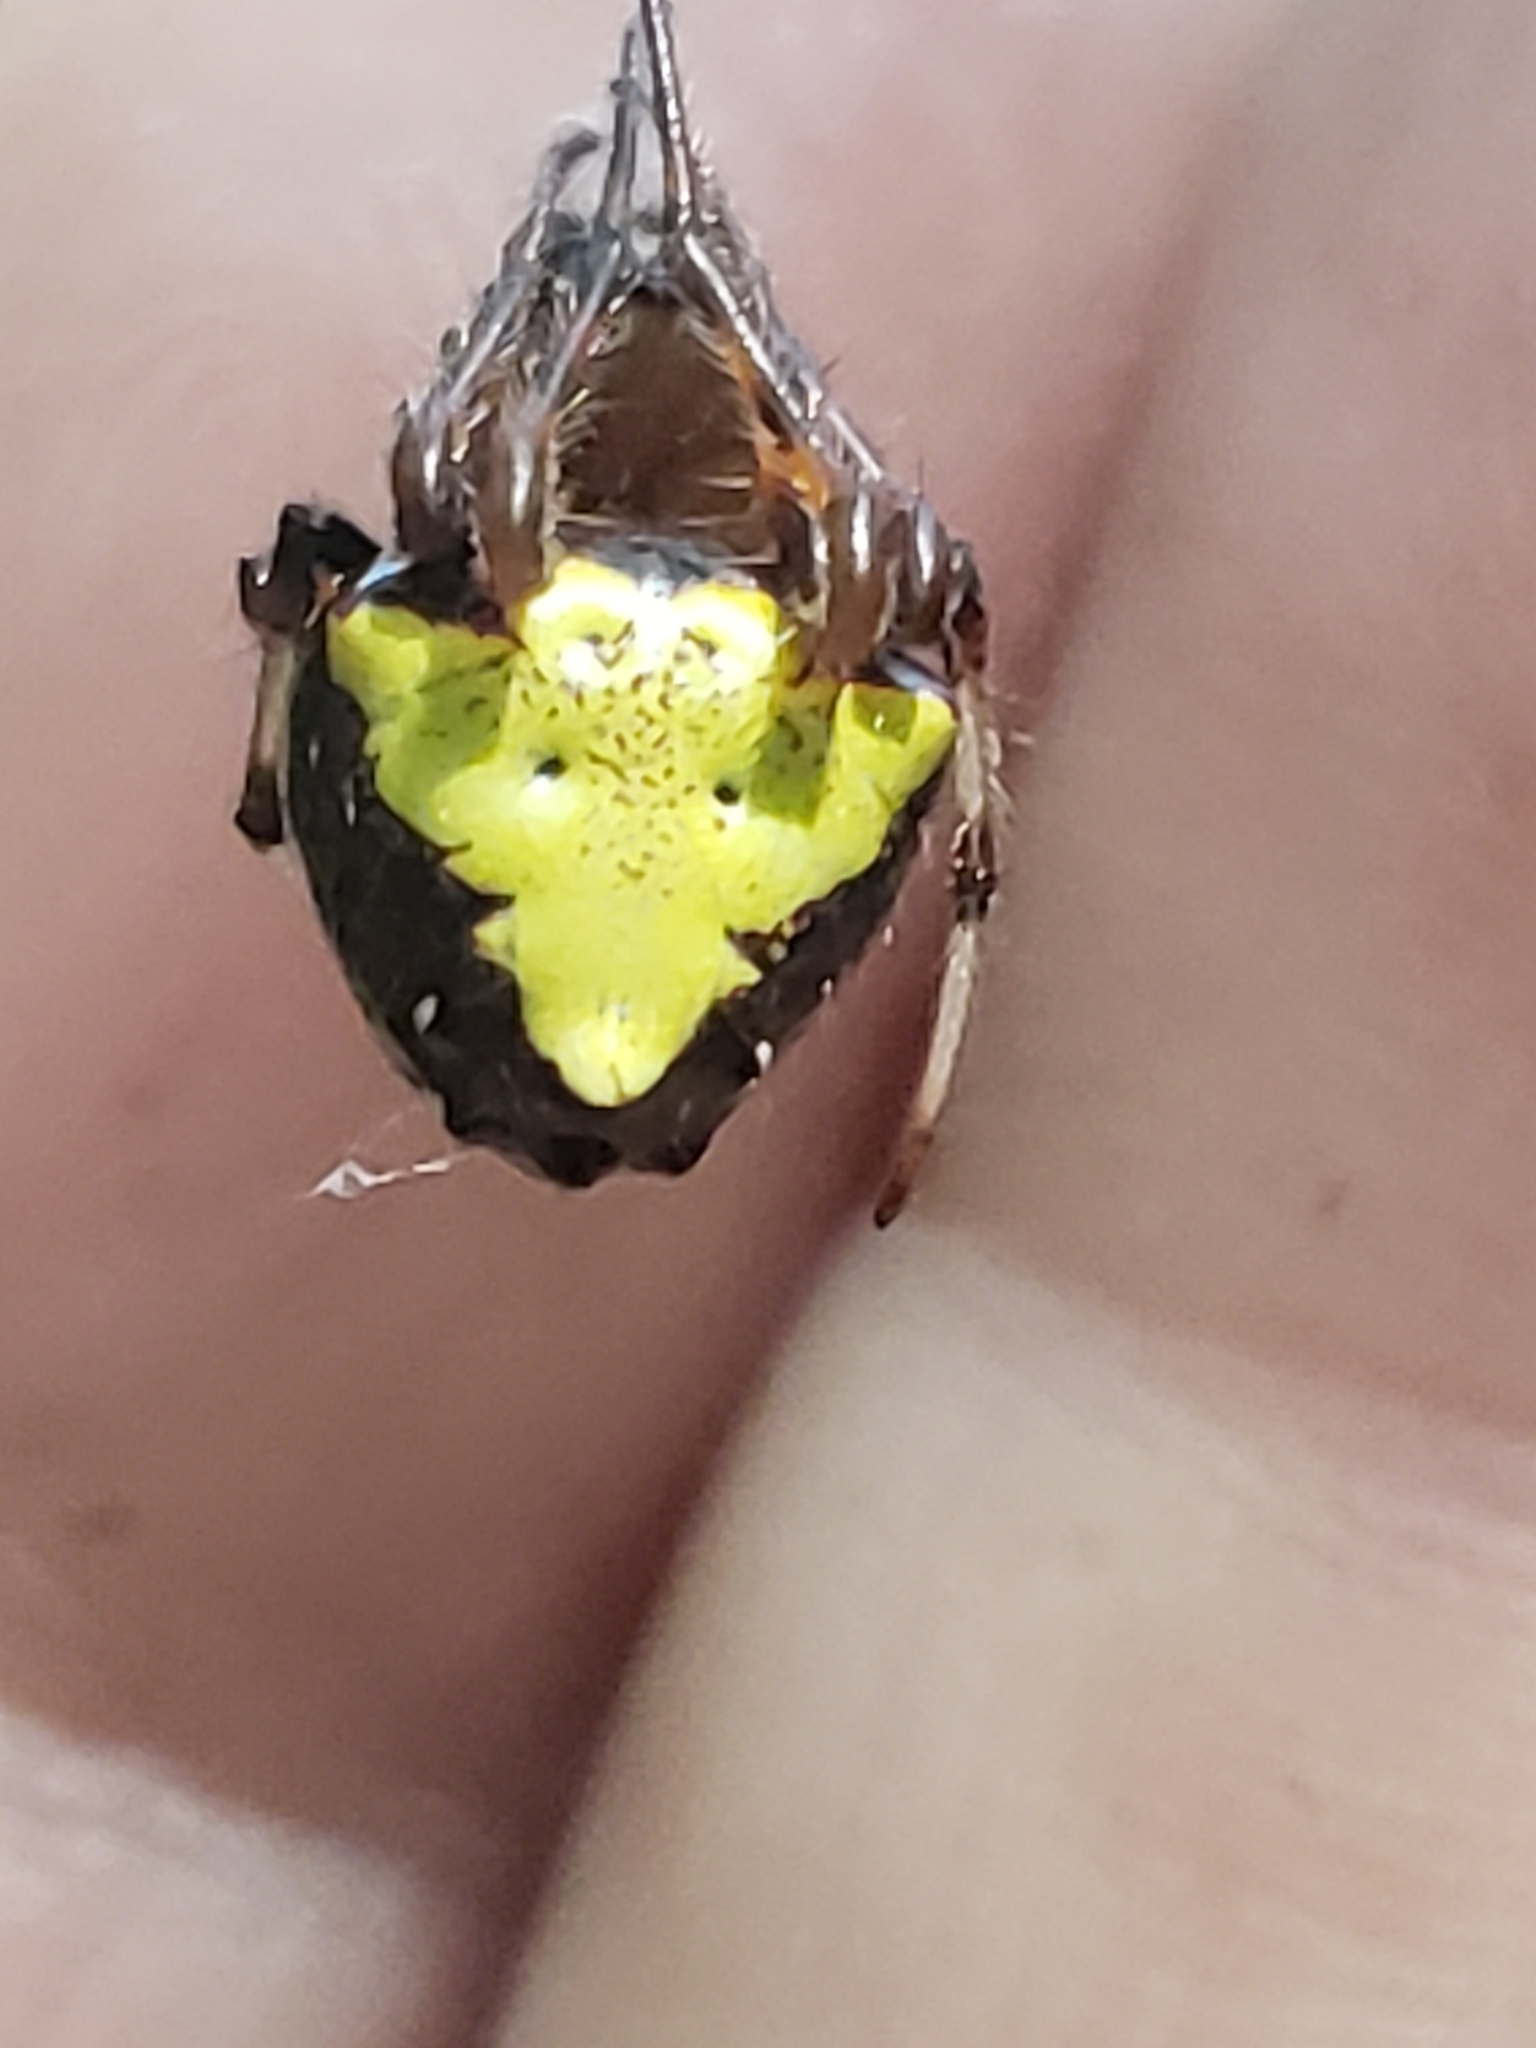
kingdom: Animalia
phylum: Arthropoda
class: Arachnida
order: Araneae
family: Araneidae
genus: Verrucosa
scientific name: Verrucosa arenata
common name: Orb weavers
